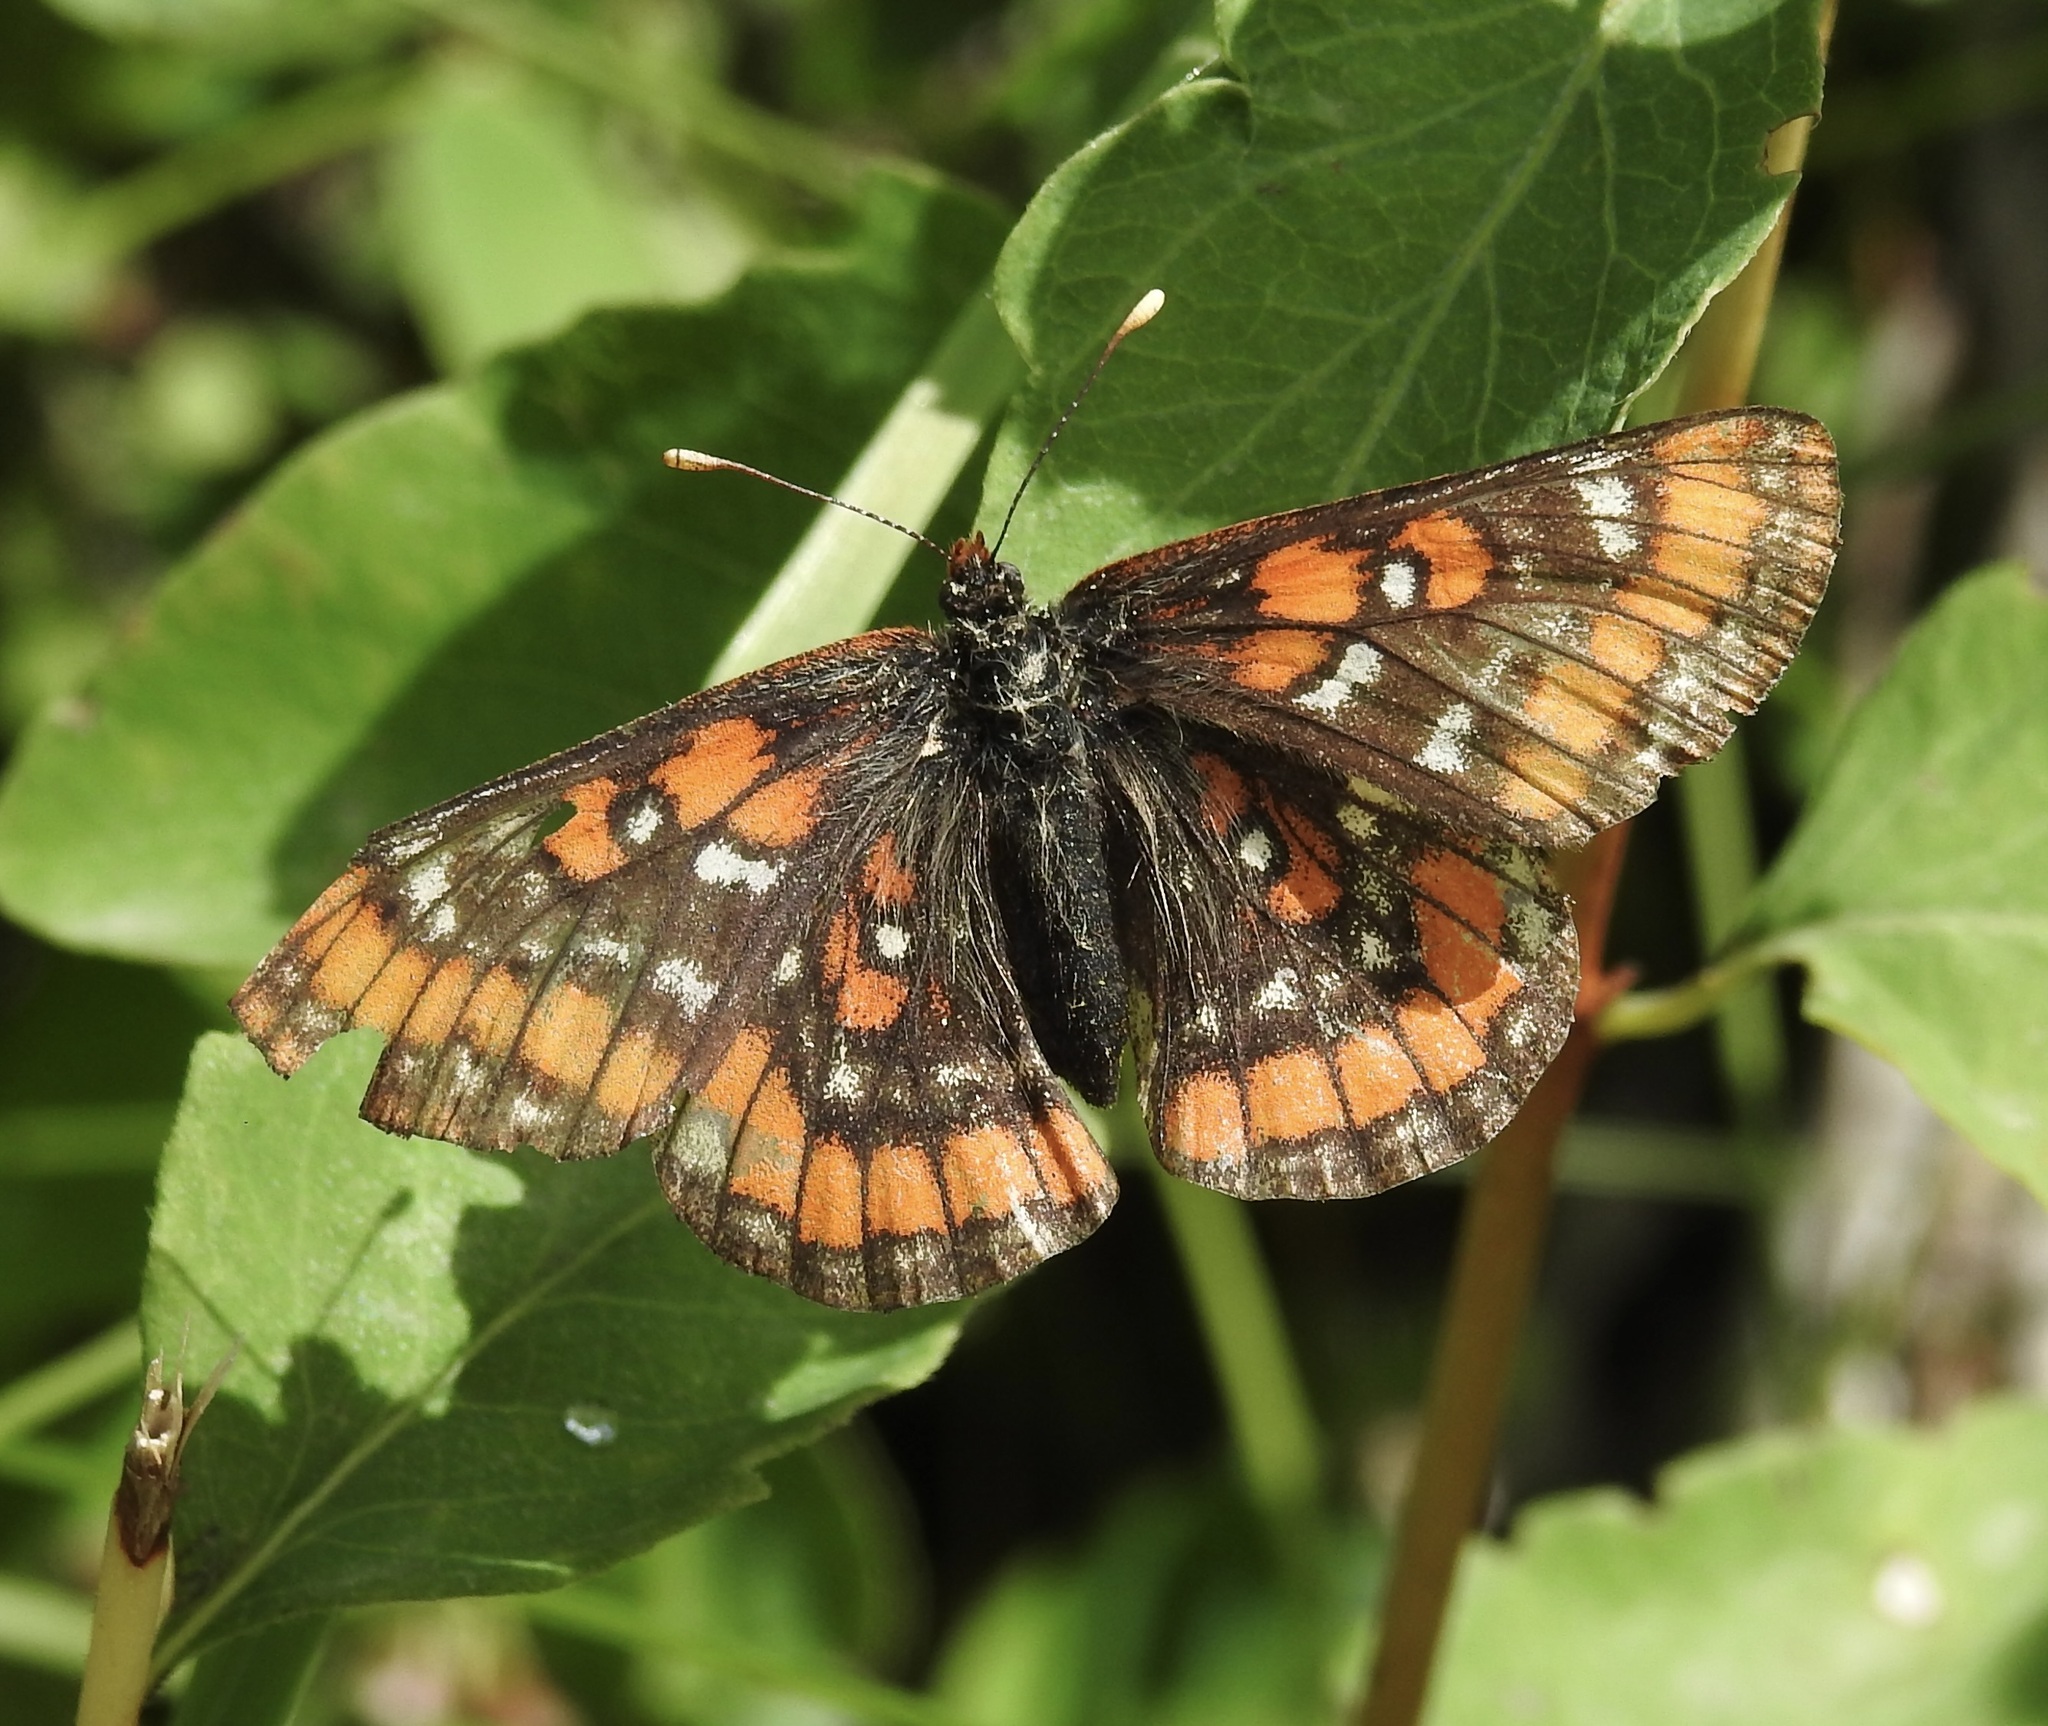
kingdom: Animalia
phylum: Arthropoda
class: Insecta
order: Lepidoptera
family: Nymphalidae
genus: Hypodryas
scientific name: Hypodryas gillettii
